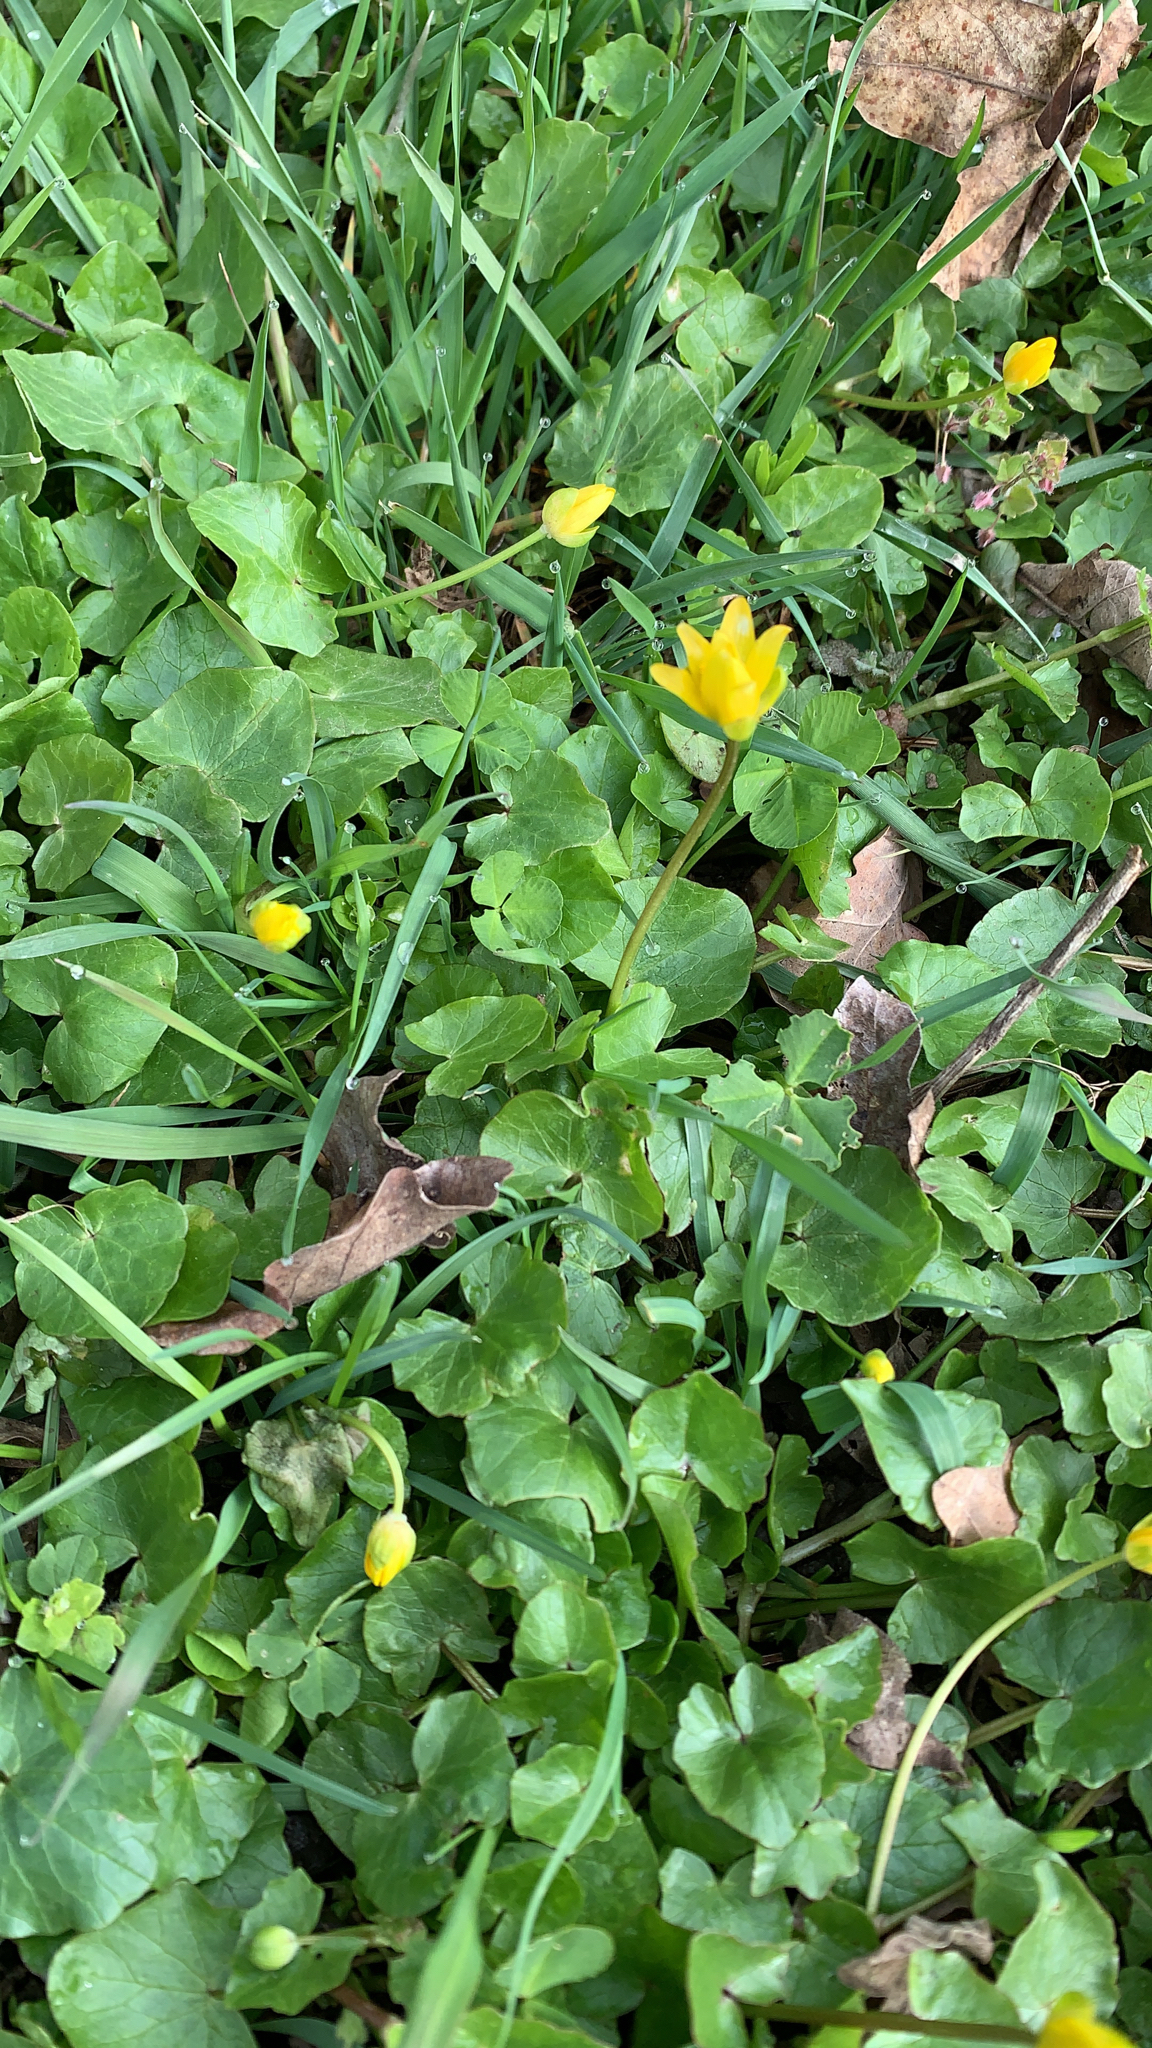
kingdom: Plantae
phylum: Tracheophyta
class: Magnoliopsida
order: Ranunculales
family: Ranunculaceae
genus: Ficaria
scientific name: Ficaria verna
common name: Lesser celandine
